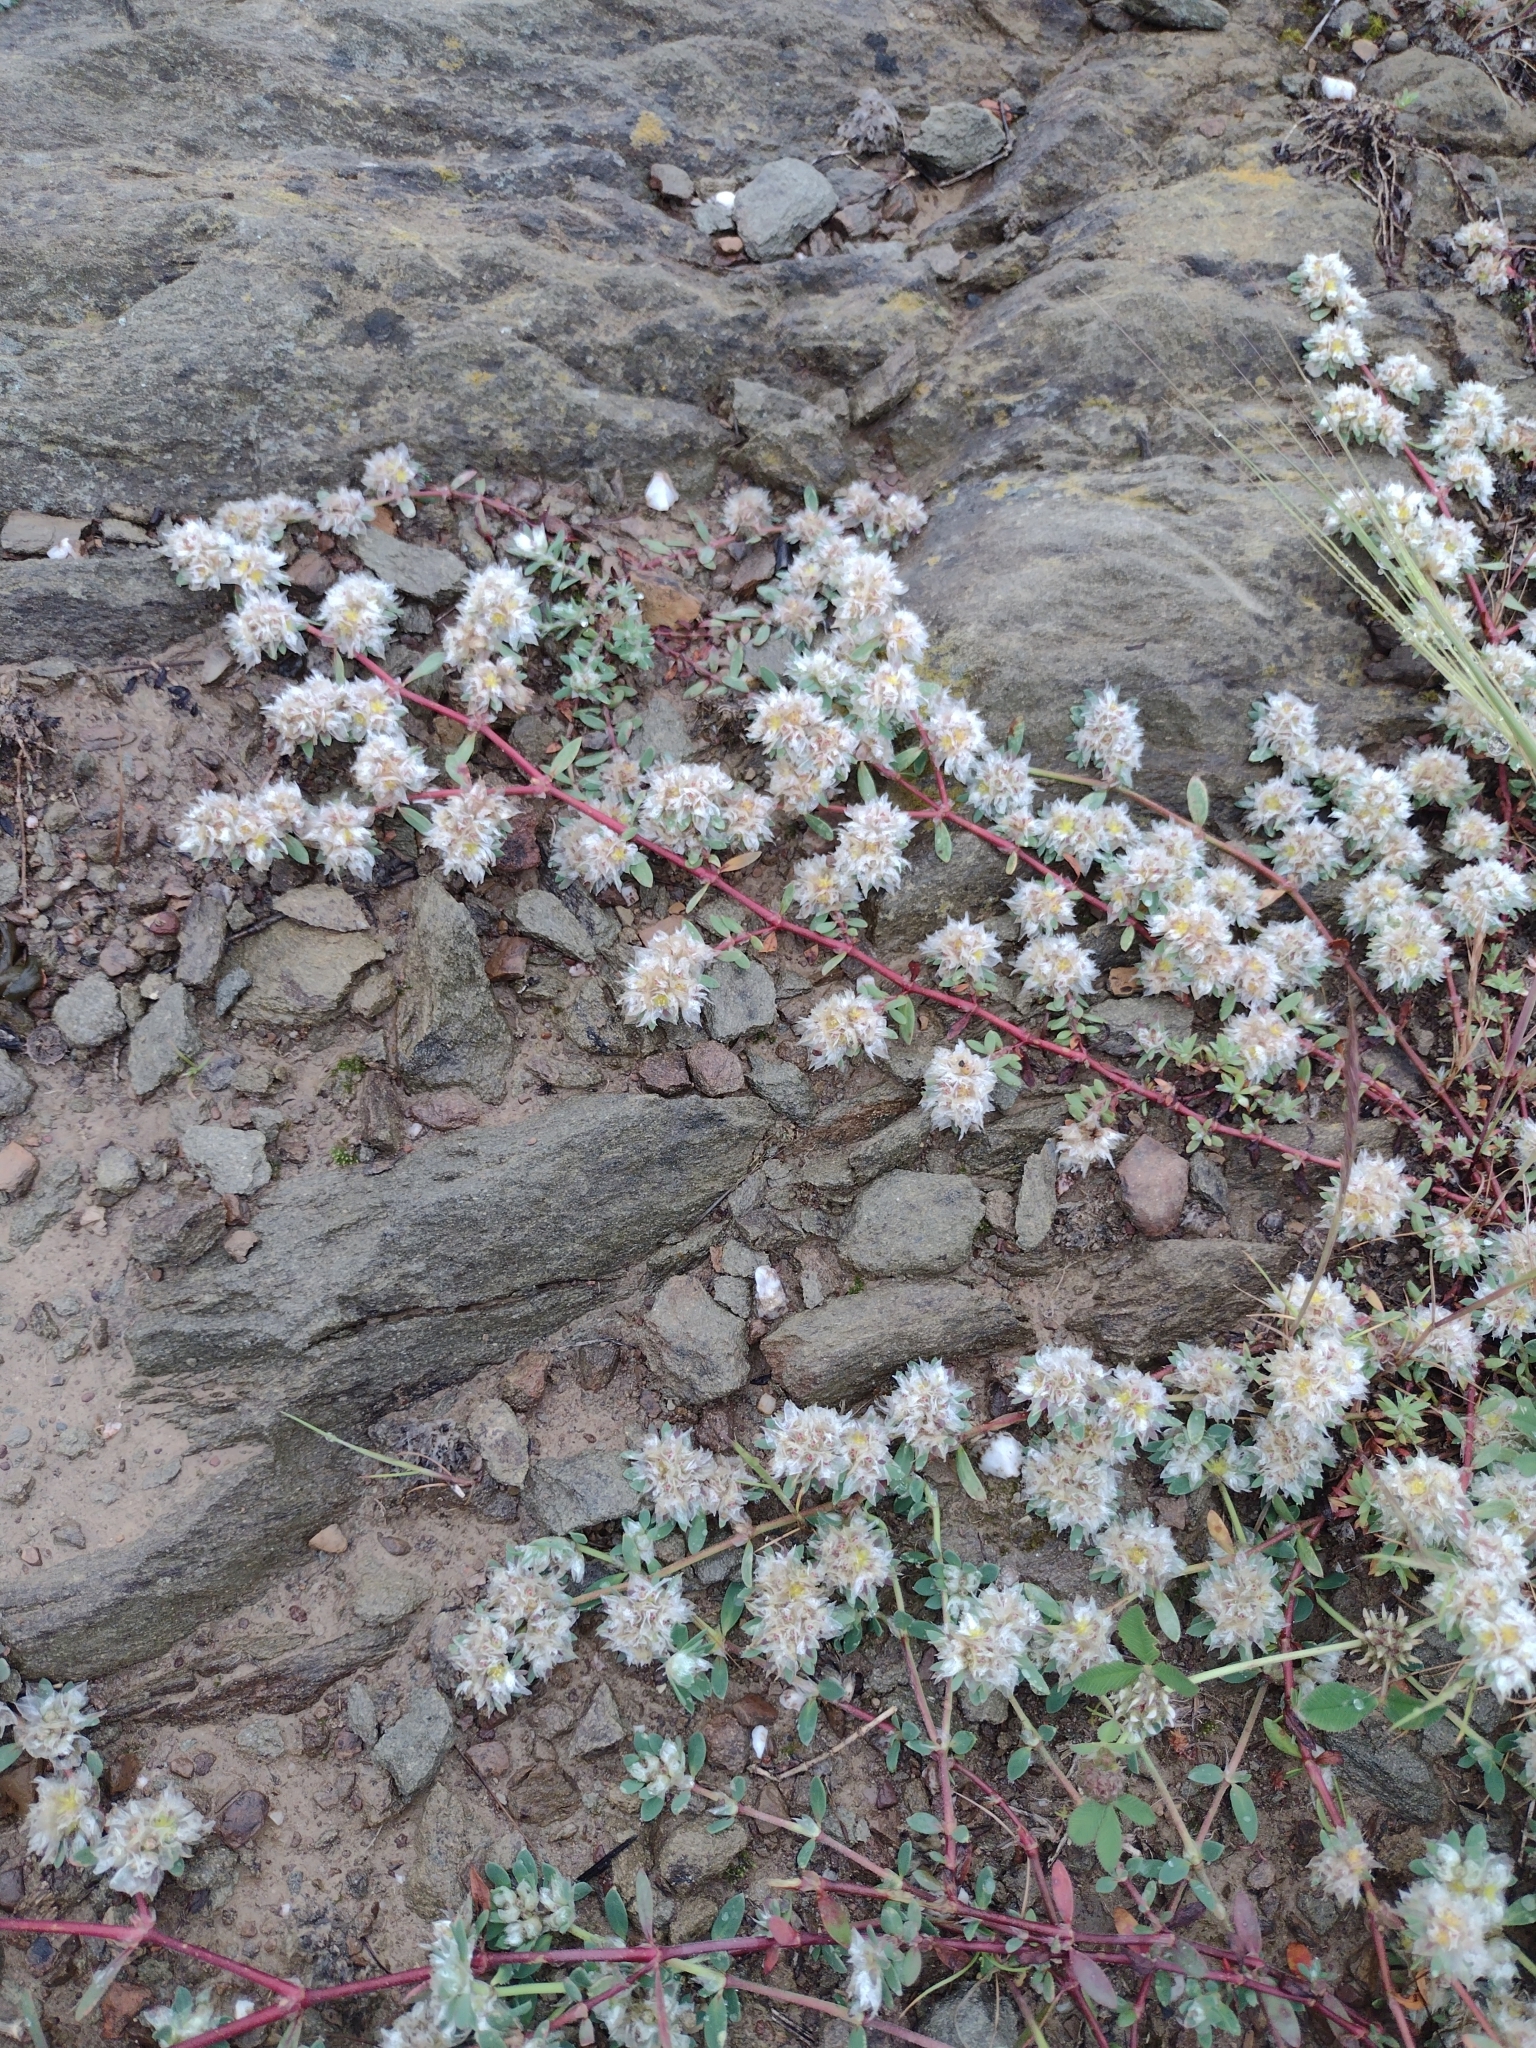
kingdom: Plantae
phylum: Tracheophyta
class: Magnoliopsida
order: Caryophyllales
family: Caryophyllaceae
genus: Paronychia
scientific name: Paronychia argentea
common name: Silver nailroot
